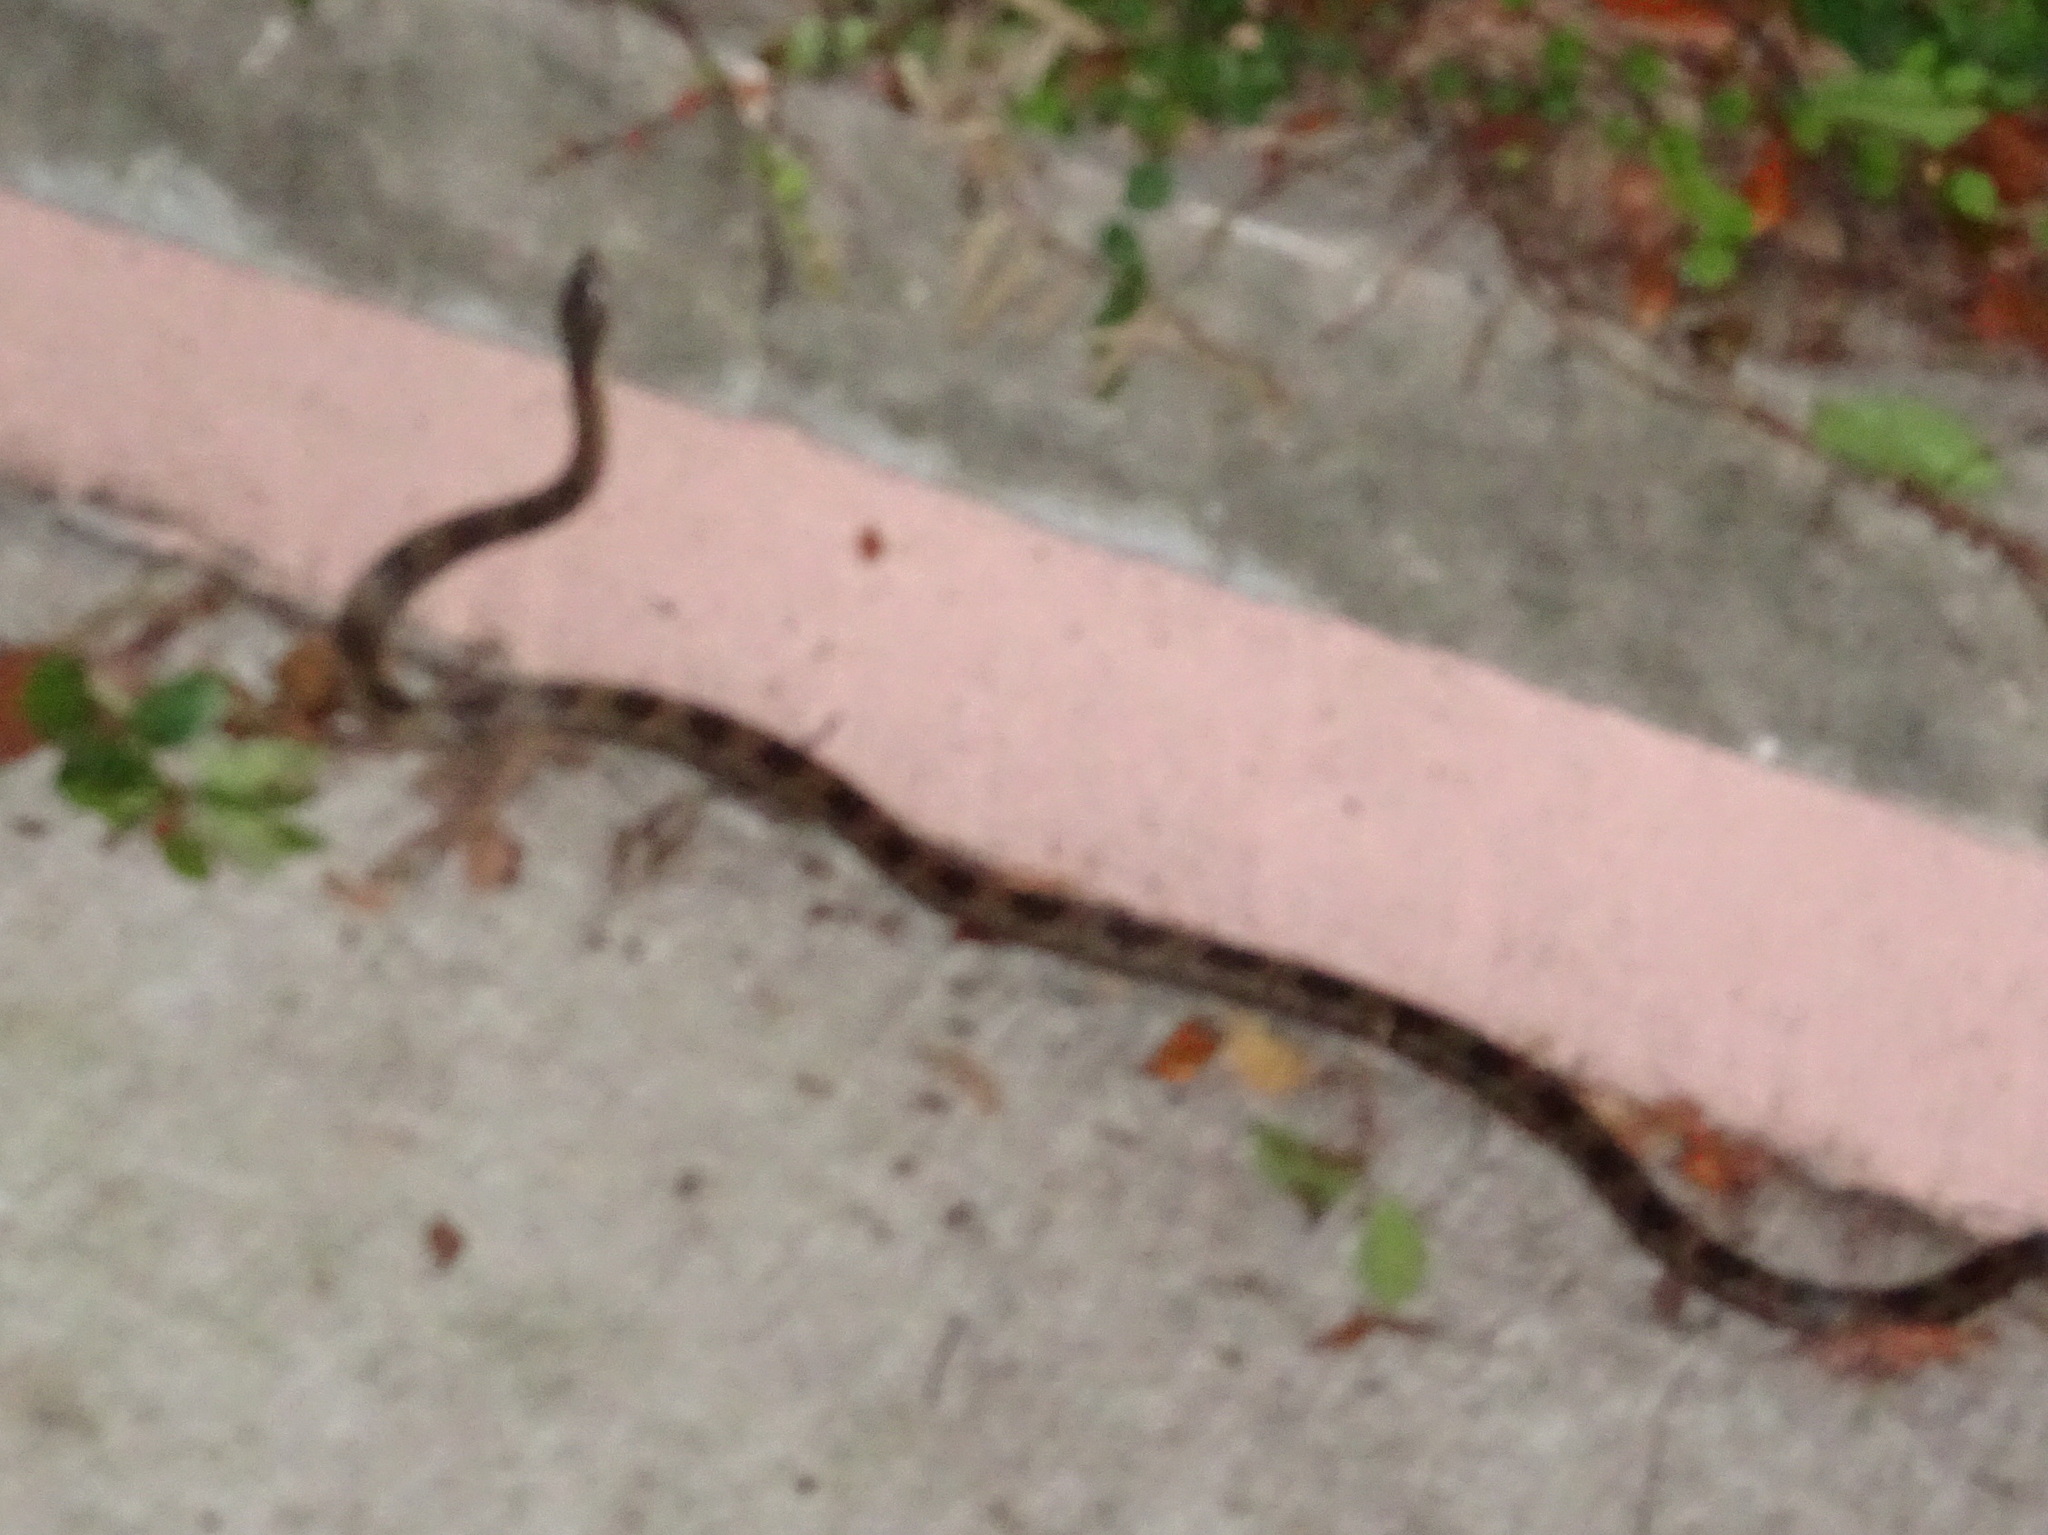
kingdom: Animalia
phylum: Chordata
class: Squamata
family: Colubridae
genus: Pantherophis
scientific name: Pantherophis spiloides
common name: Gray rat snake
